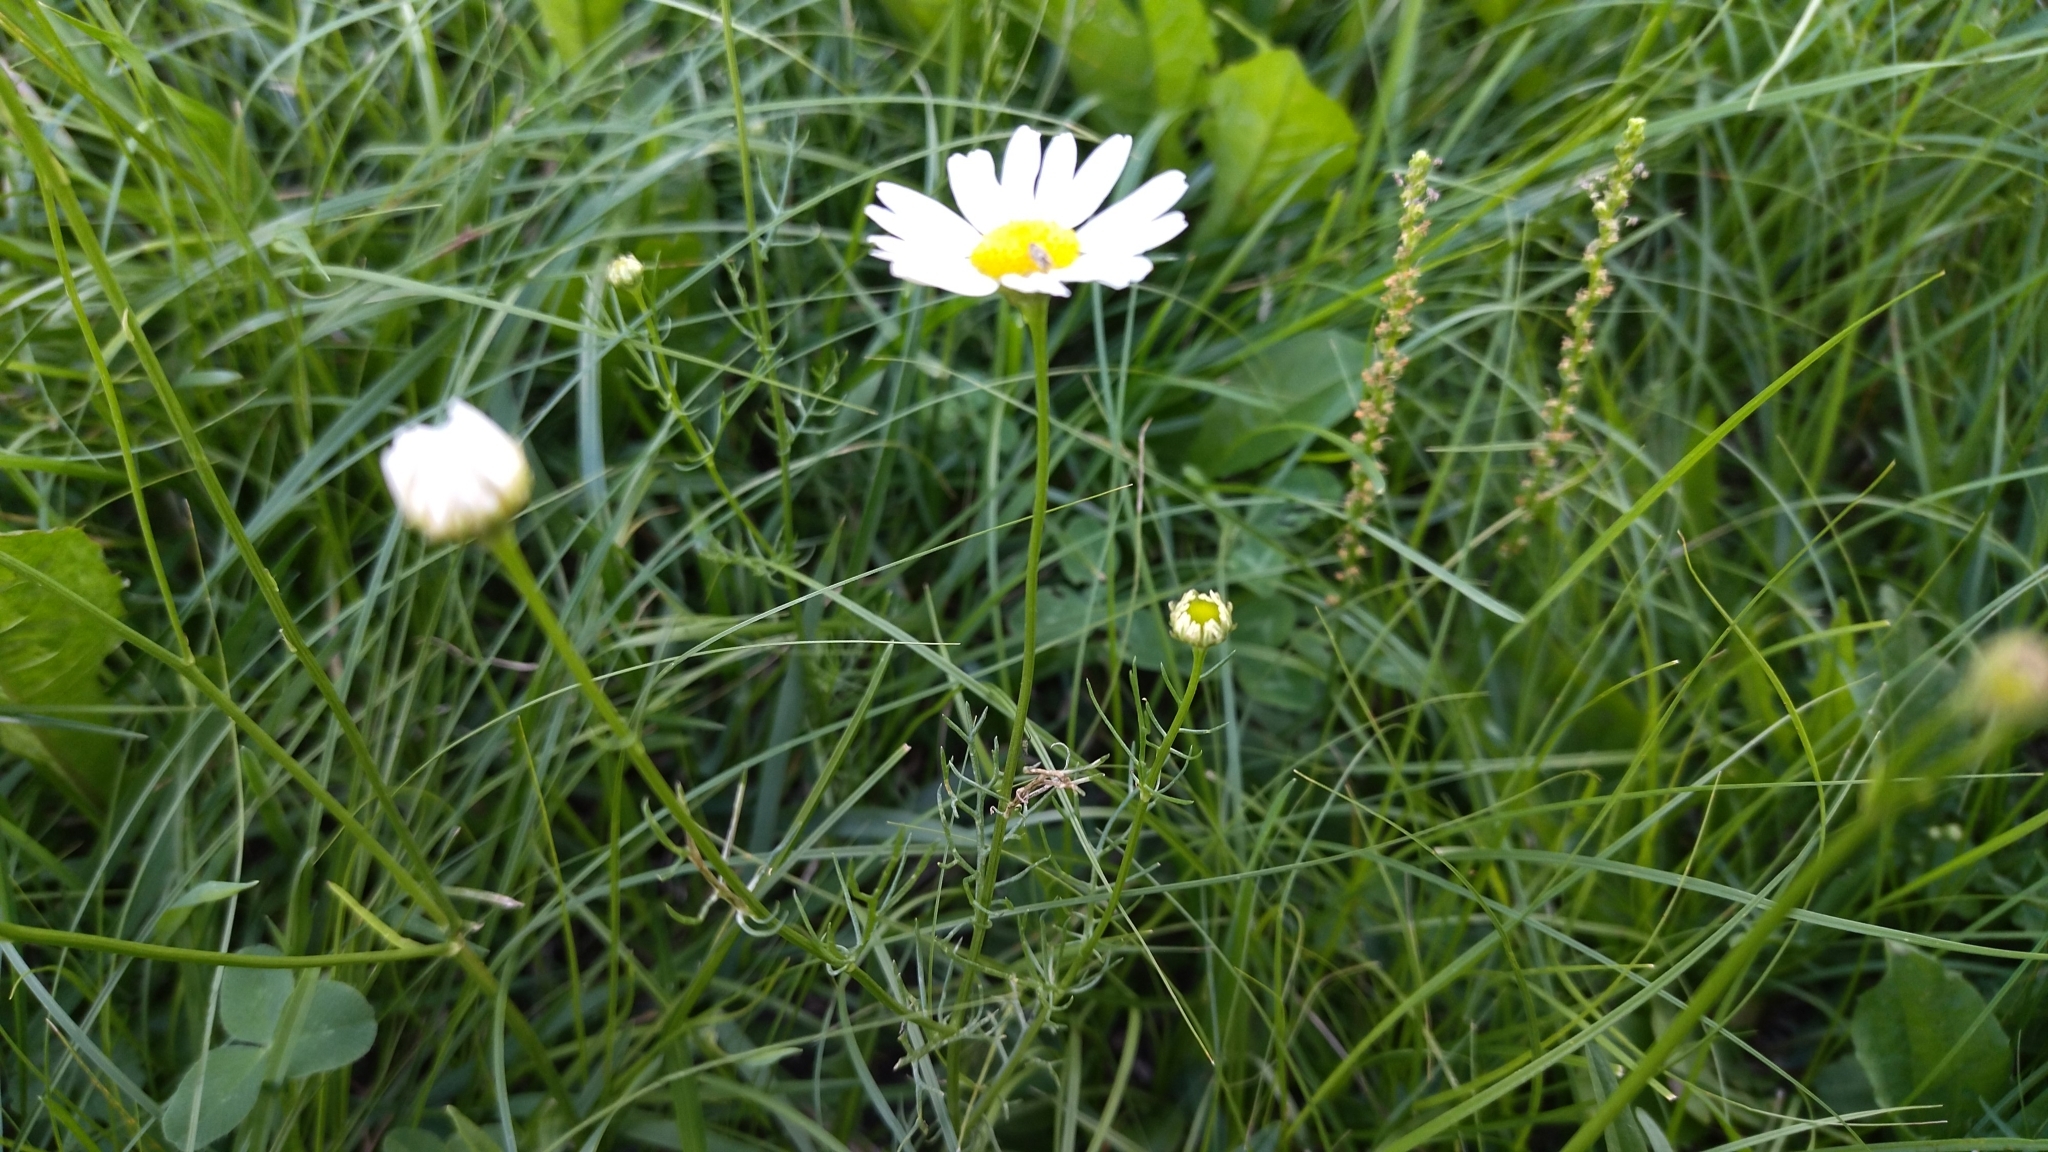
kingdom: Plantae
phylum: Tracheophyta
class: Magnoliopsida
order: Asterales
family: Asteraceae
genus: Tripleurospermum
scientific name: Tripleurospermum inodorum
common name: Scentless mayweed
